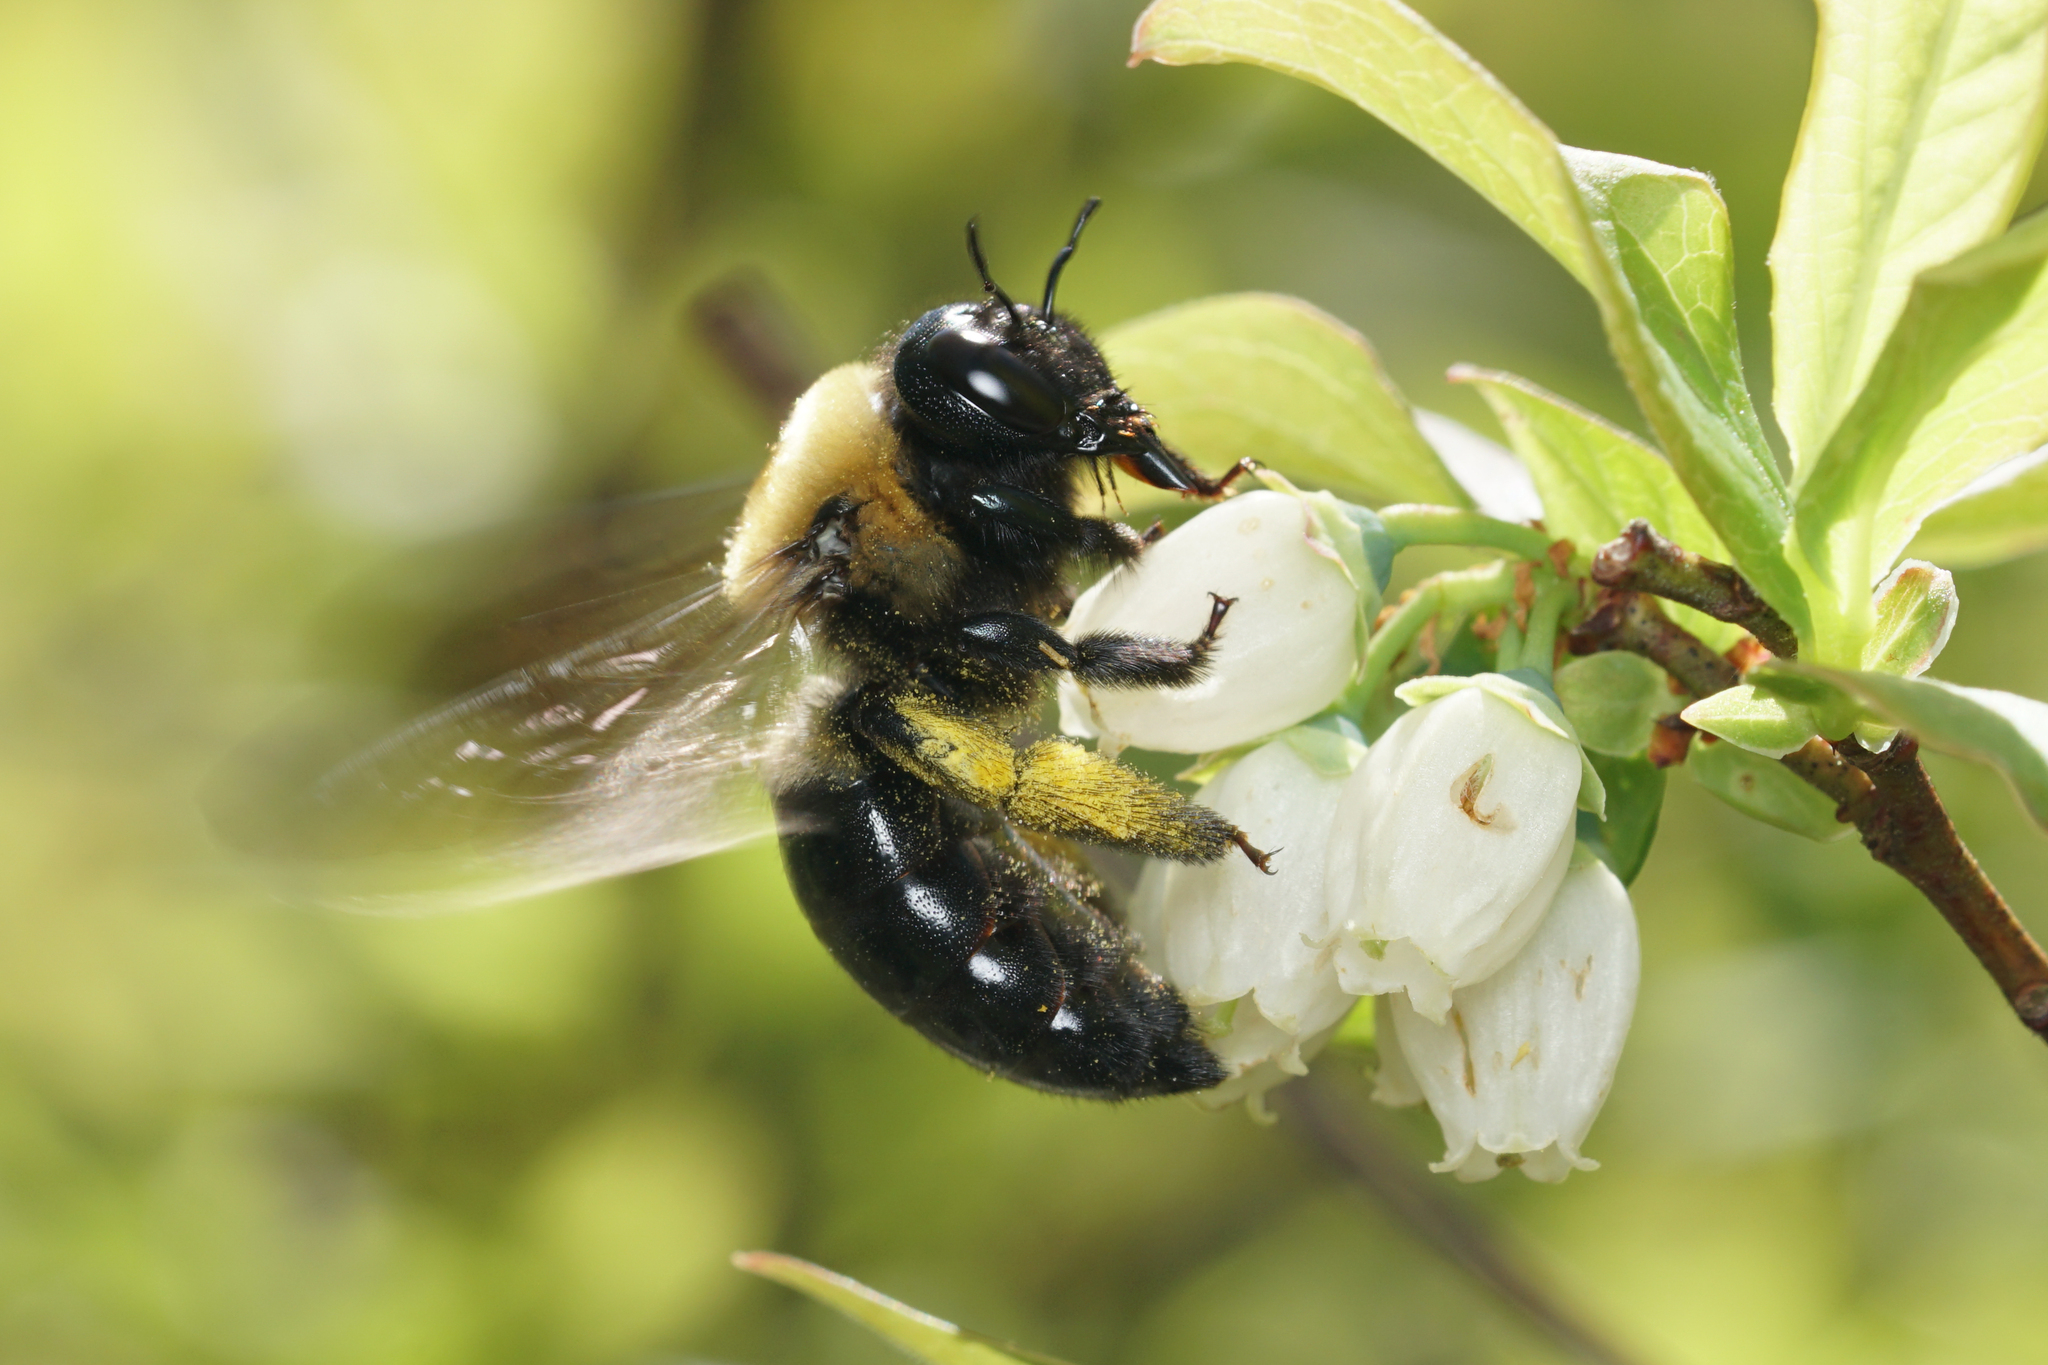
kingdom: Animalia
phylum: Arthropoda
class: Insecta
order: Hymenoptera
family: Apidae
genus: Xylocopa
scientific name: Xylocopa virginica
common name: Carpenter bee
